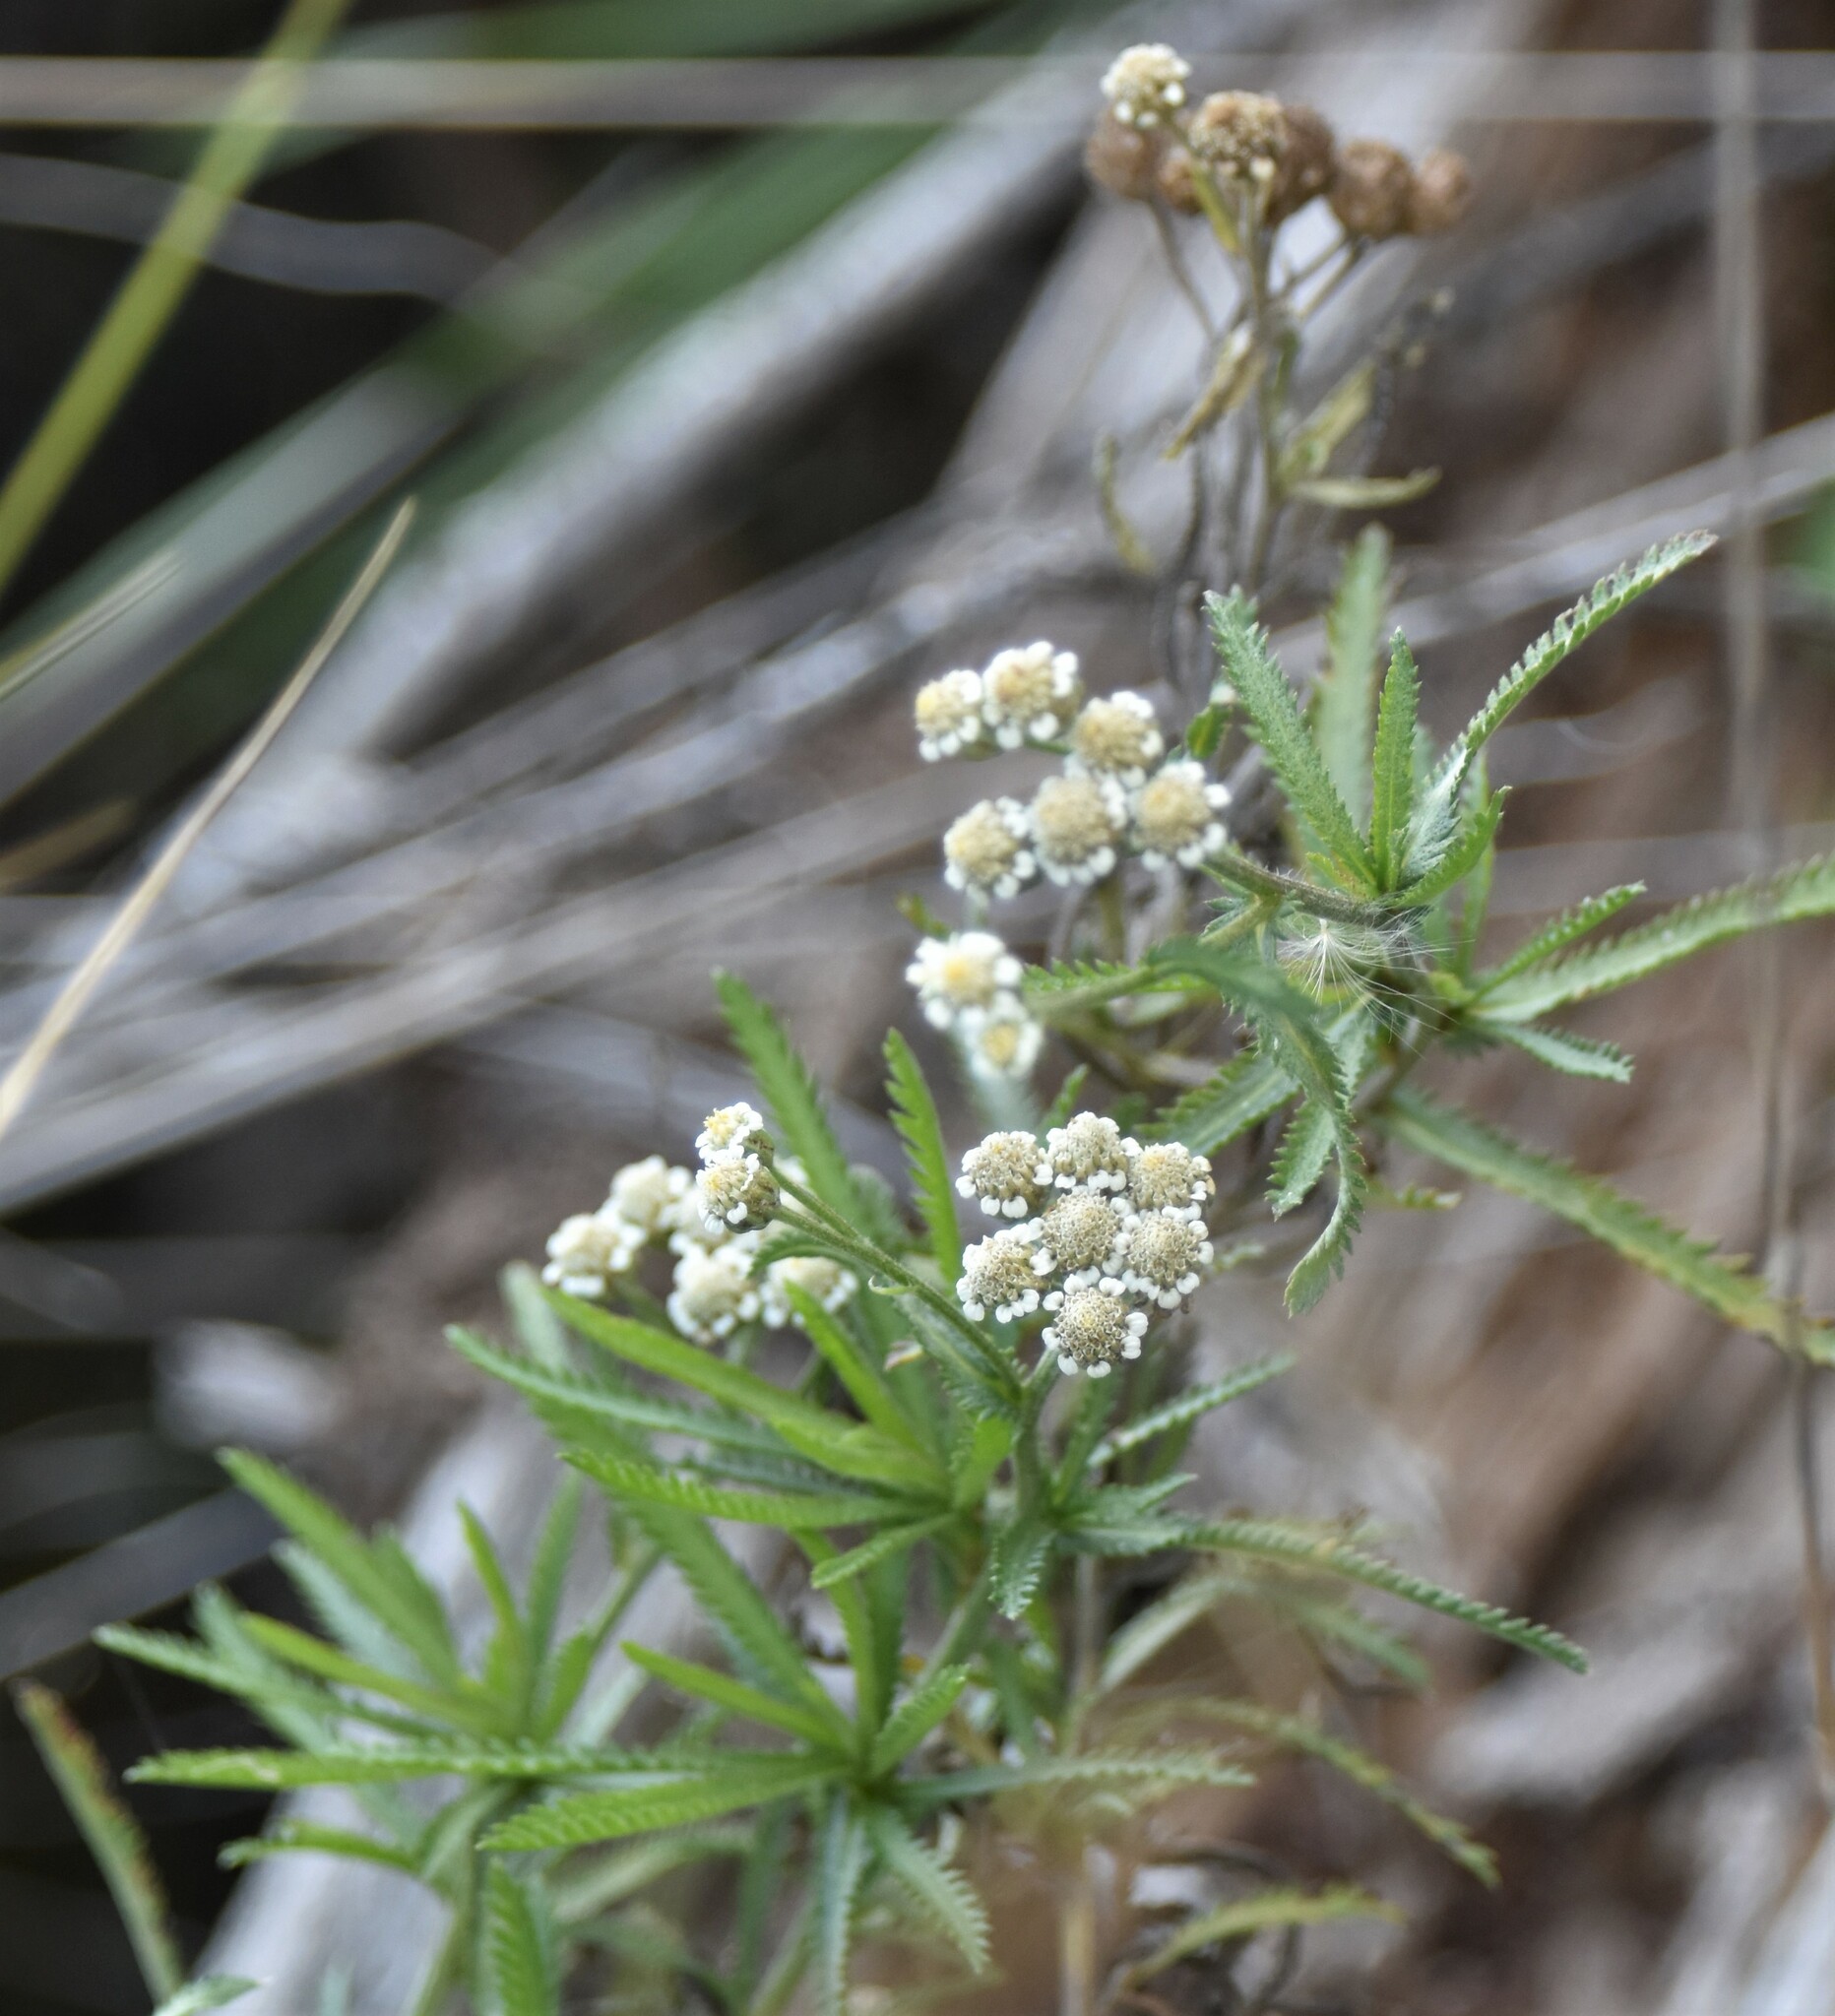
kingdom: Plantae
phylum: Tracheophyta
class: Magnoliopsida
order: Asterales
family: Asteraceae
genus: Achillea
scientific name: Achillea alpina
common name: Siberian yarrow
